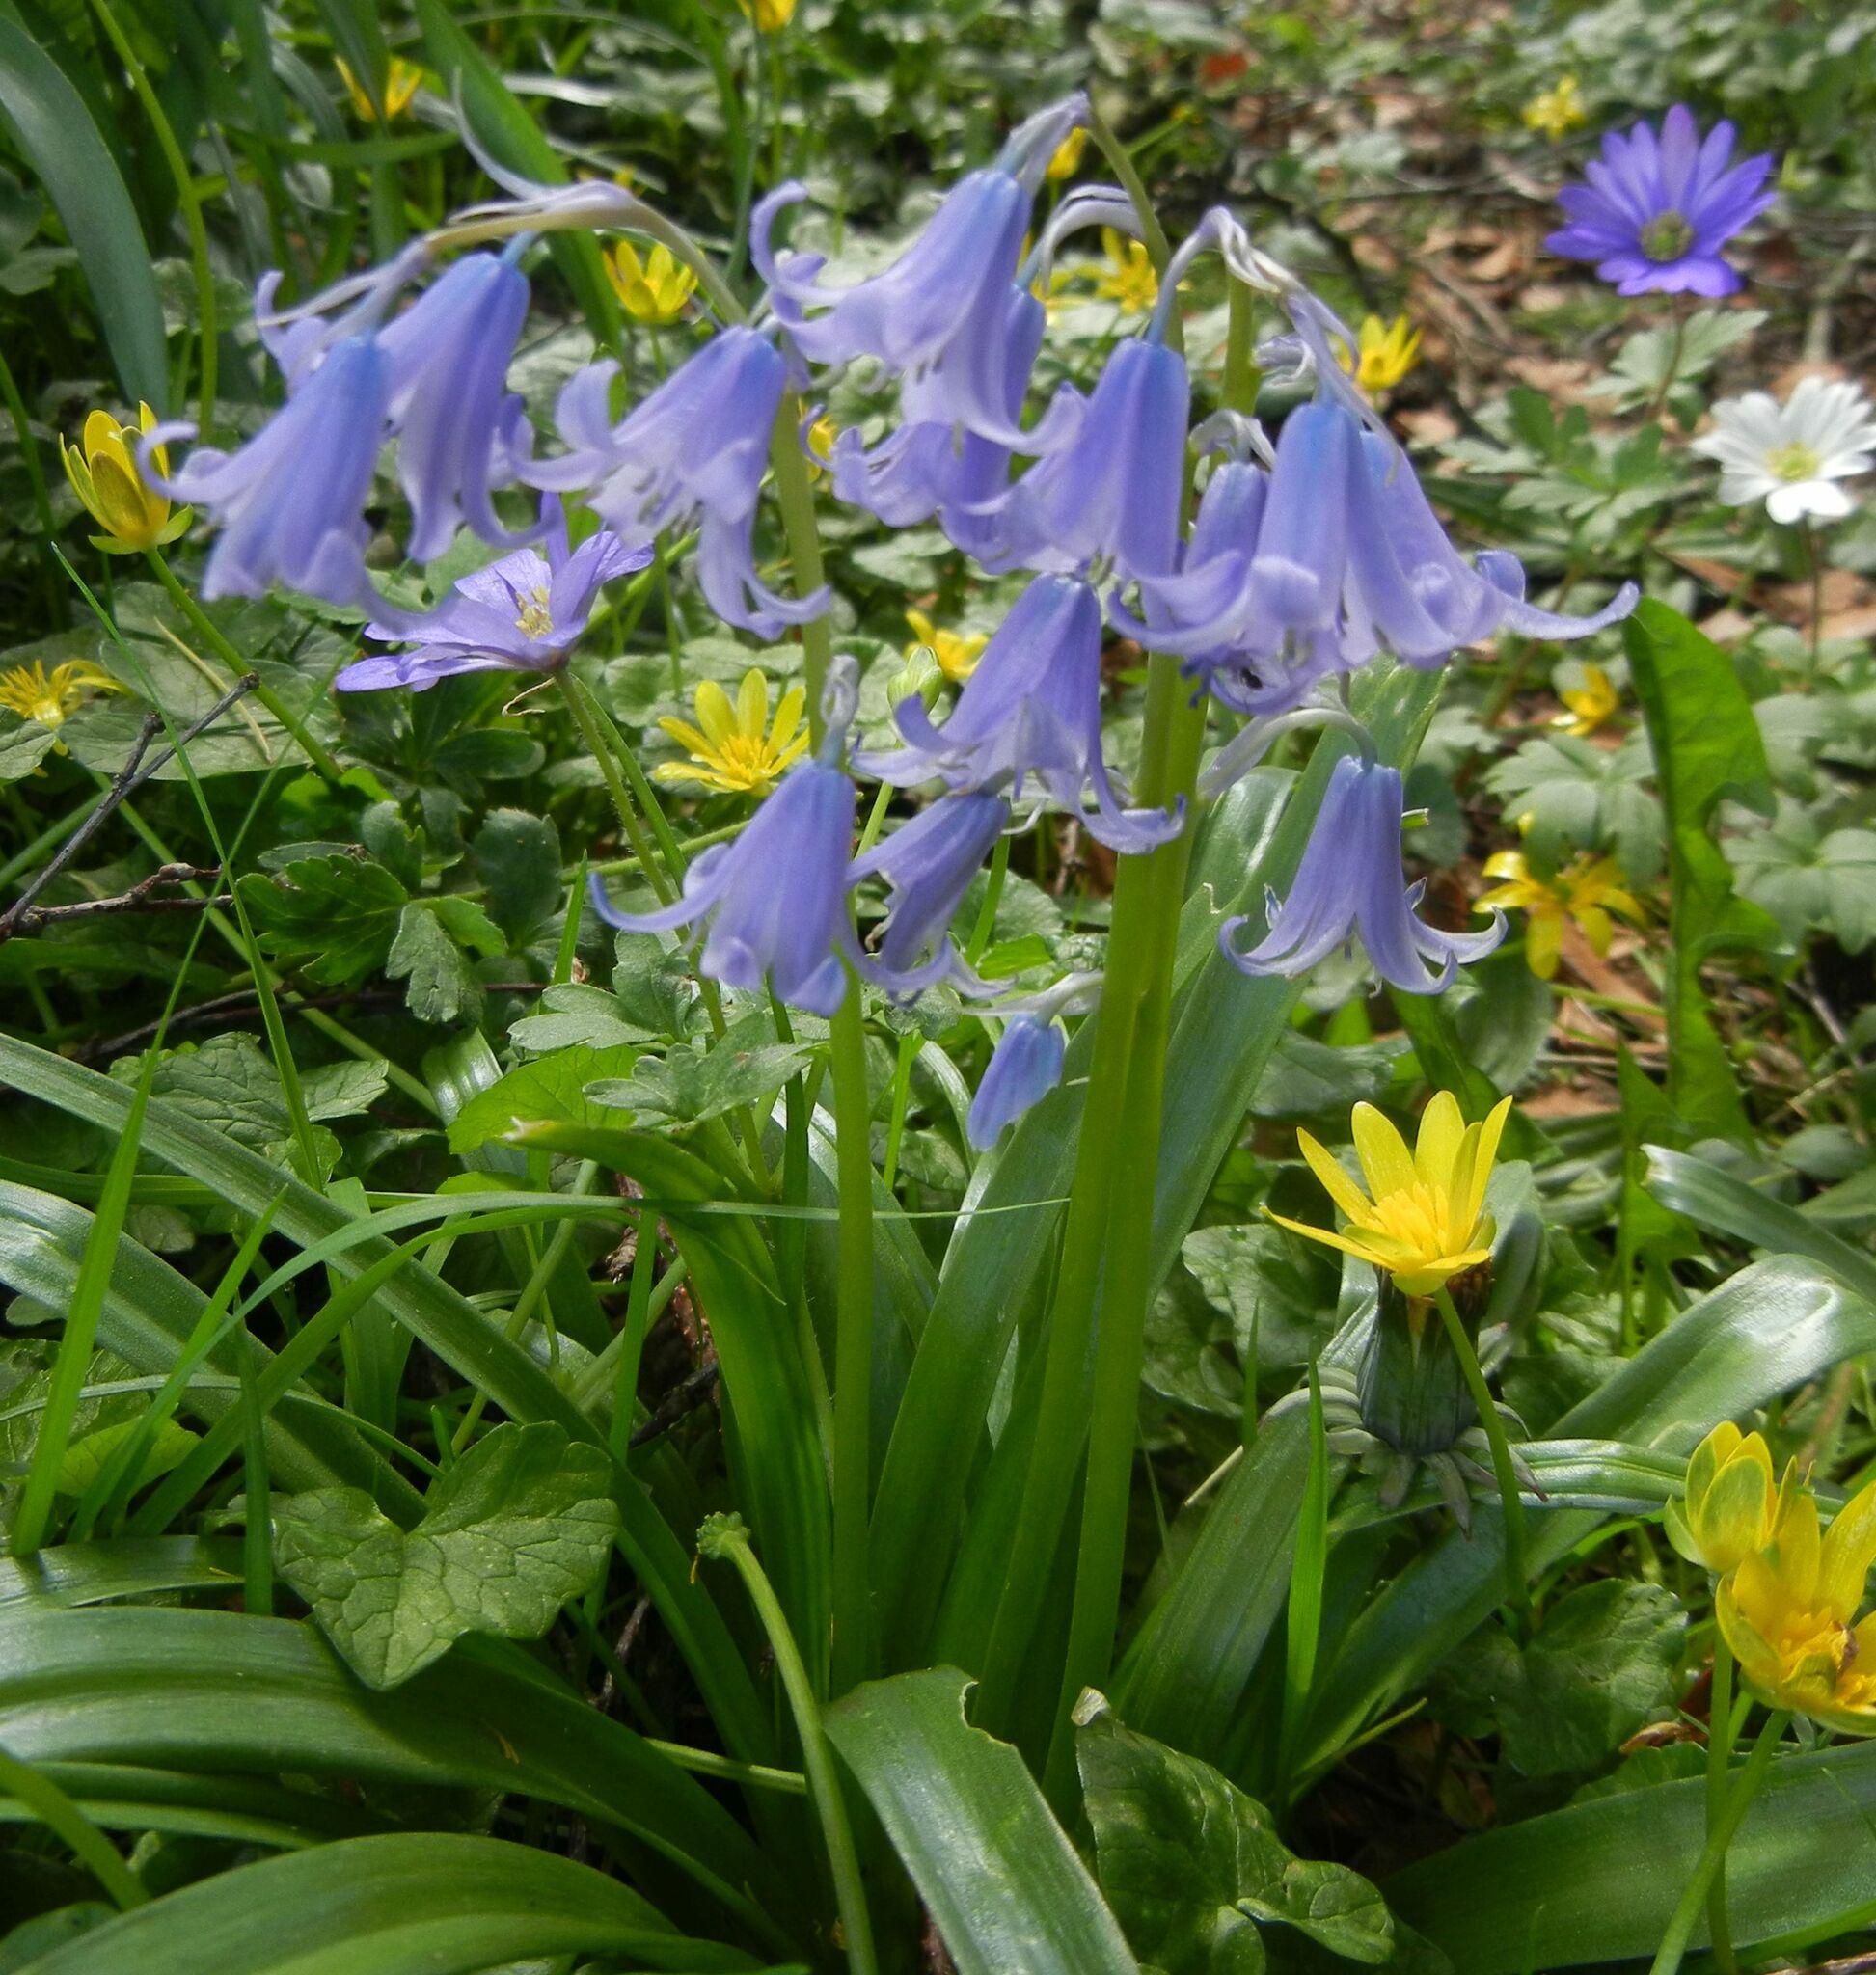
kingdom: Plantae
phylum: Tracheophyta
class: Liliopsida
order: Asparagales
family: Asparagaceae
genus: Hyacinthoides
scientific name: Hyacinthoides massartiana
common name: Hyacinthoides
